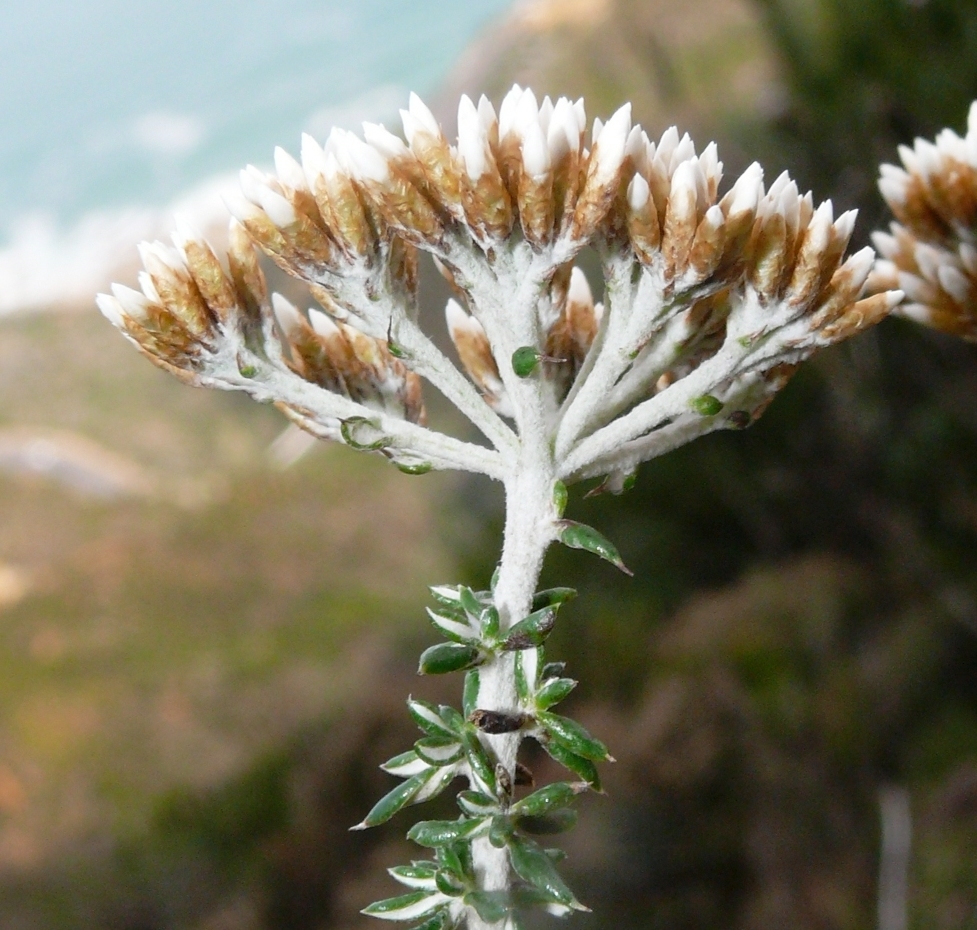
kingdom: Plantae
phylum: Tracheophyta
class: Magnoliopsida
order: Asterales
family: Asteraceae
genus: Metalasia
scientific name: Metalasia densa
